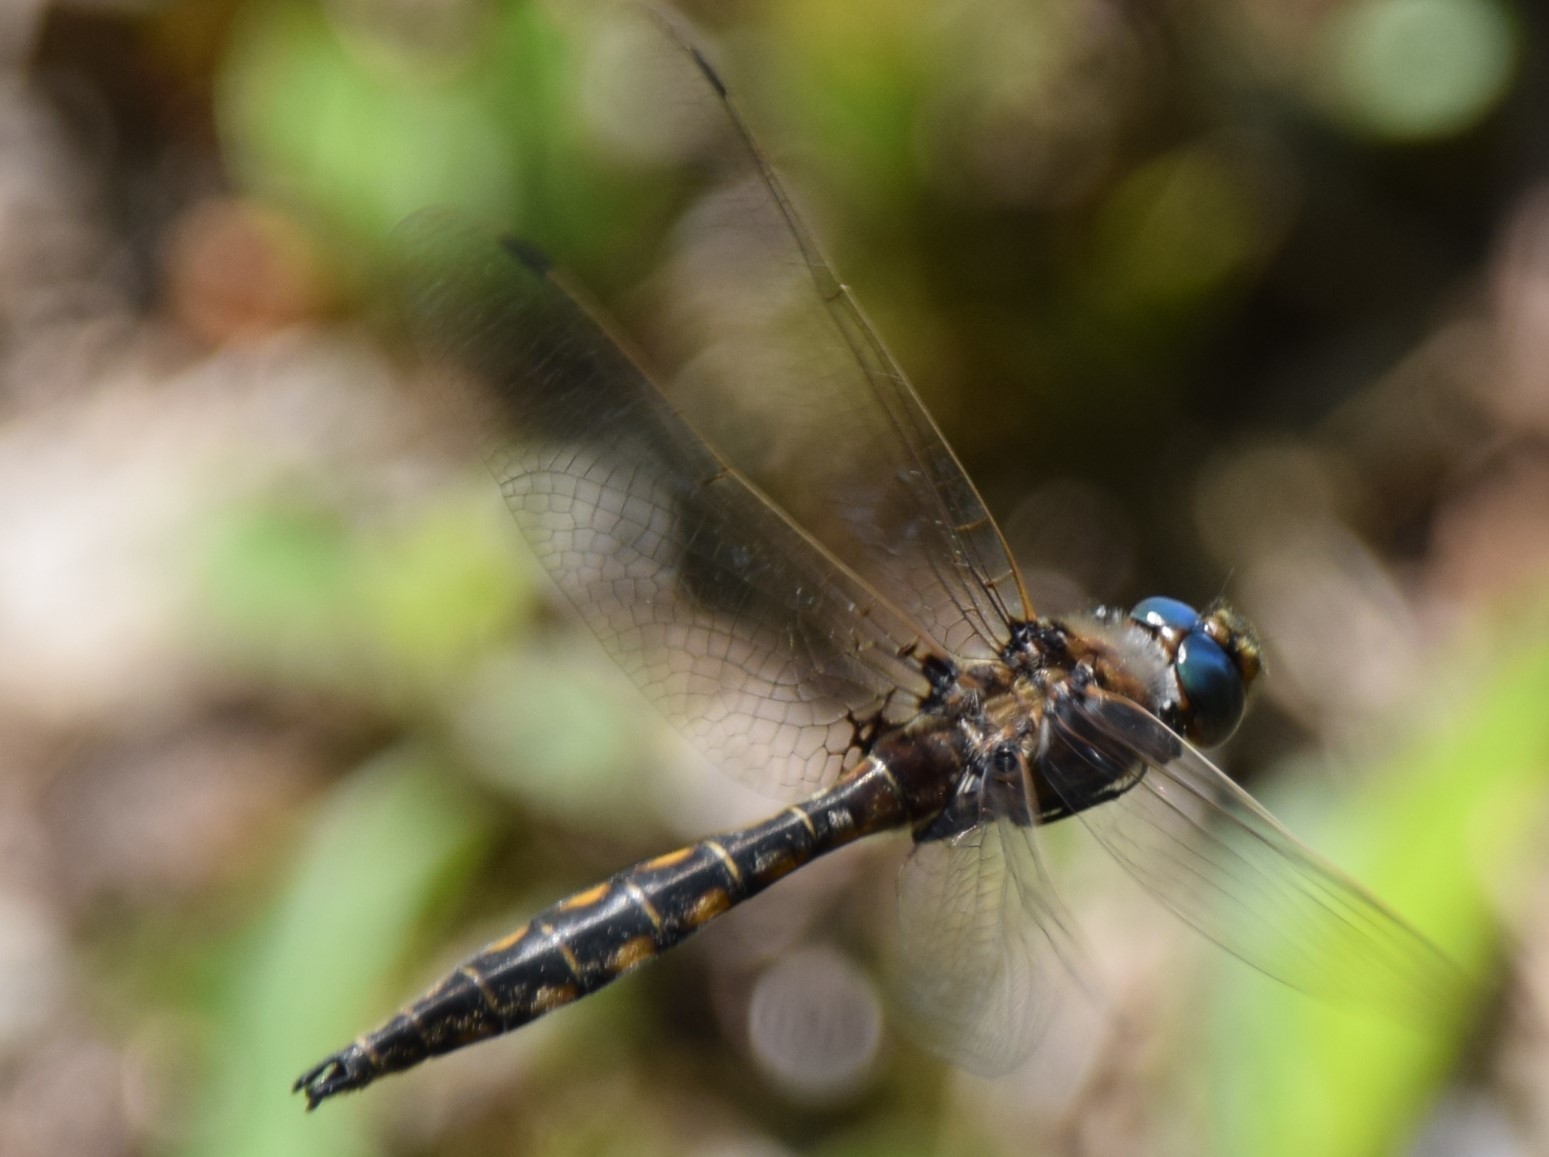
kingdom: Animalia
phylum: Arthropoda
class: Insecta
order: Odonata
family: Corduliidae
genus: Epitheca
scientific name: Epitheca canis
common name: Beaverpond baskettail
